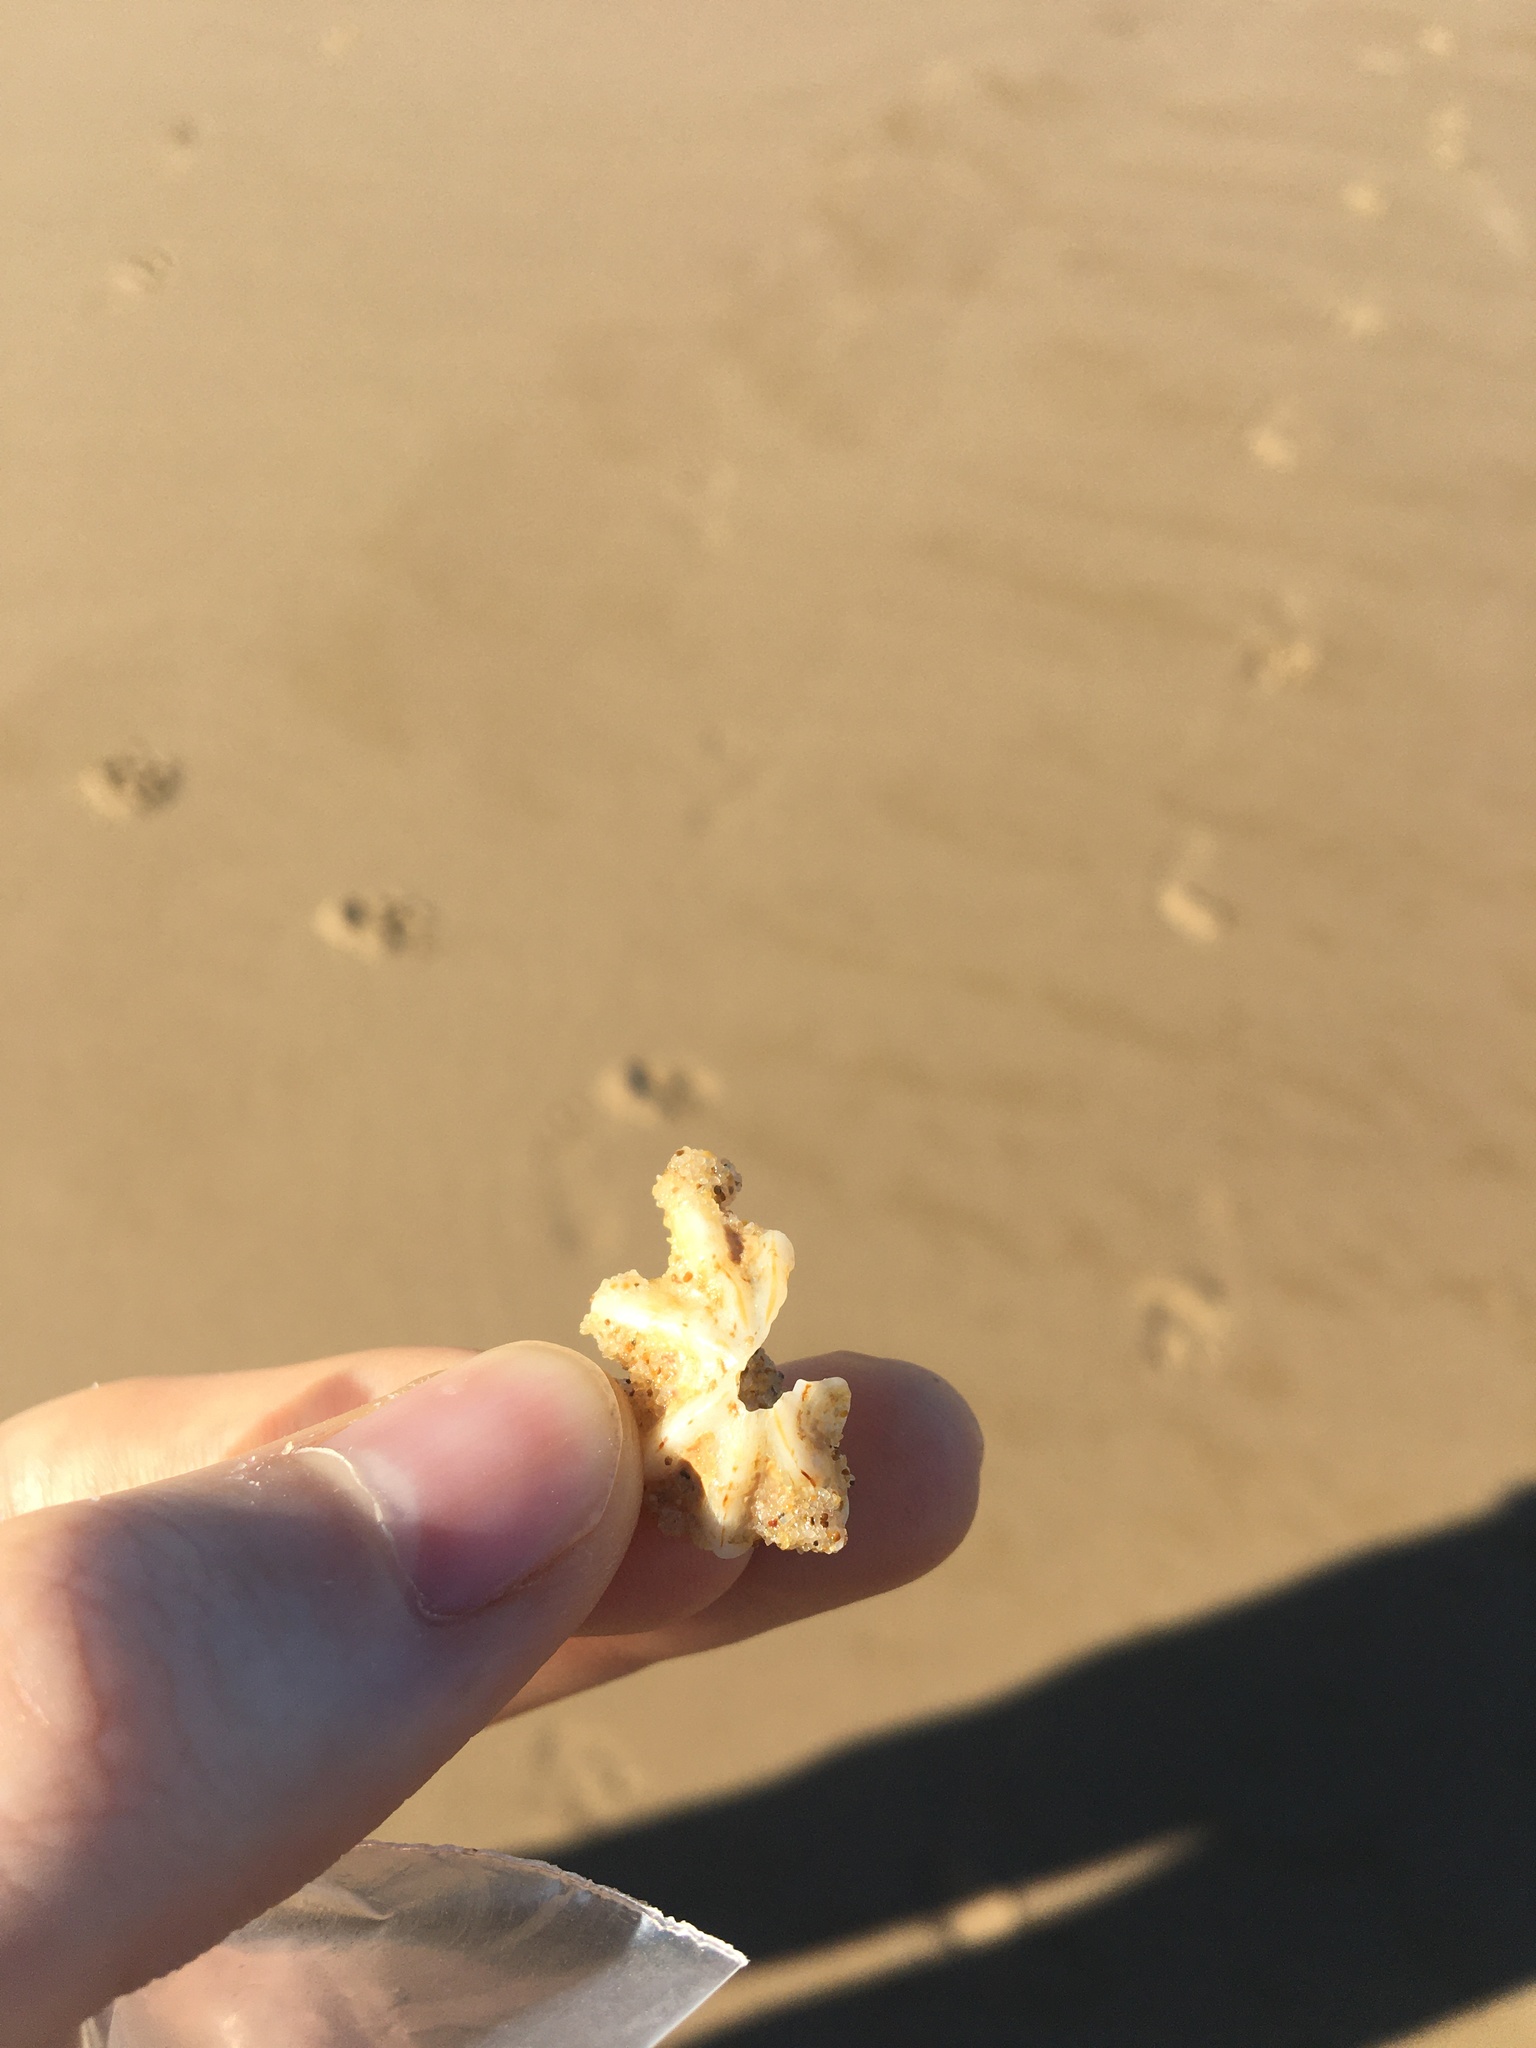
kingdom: Animalia
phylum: Mollusca
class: Gastropoda
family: Patellidae
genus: Scutellastra
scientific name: Scutellastra chapmani
